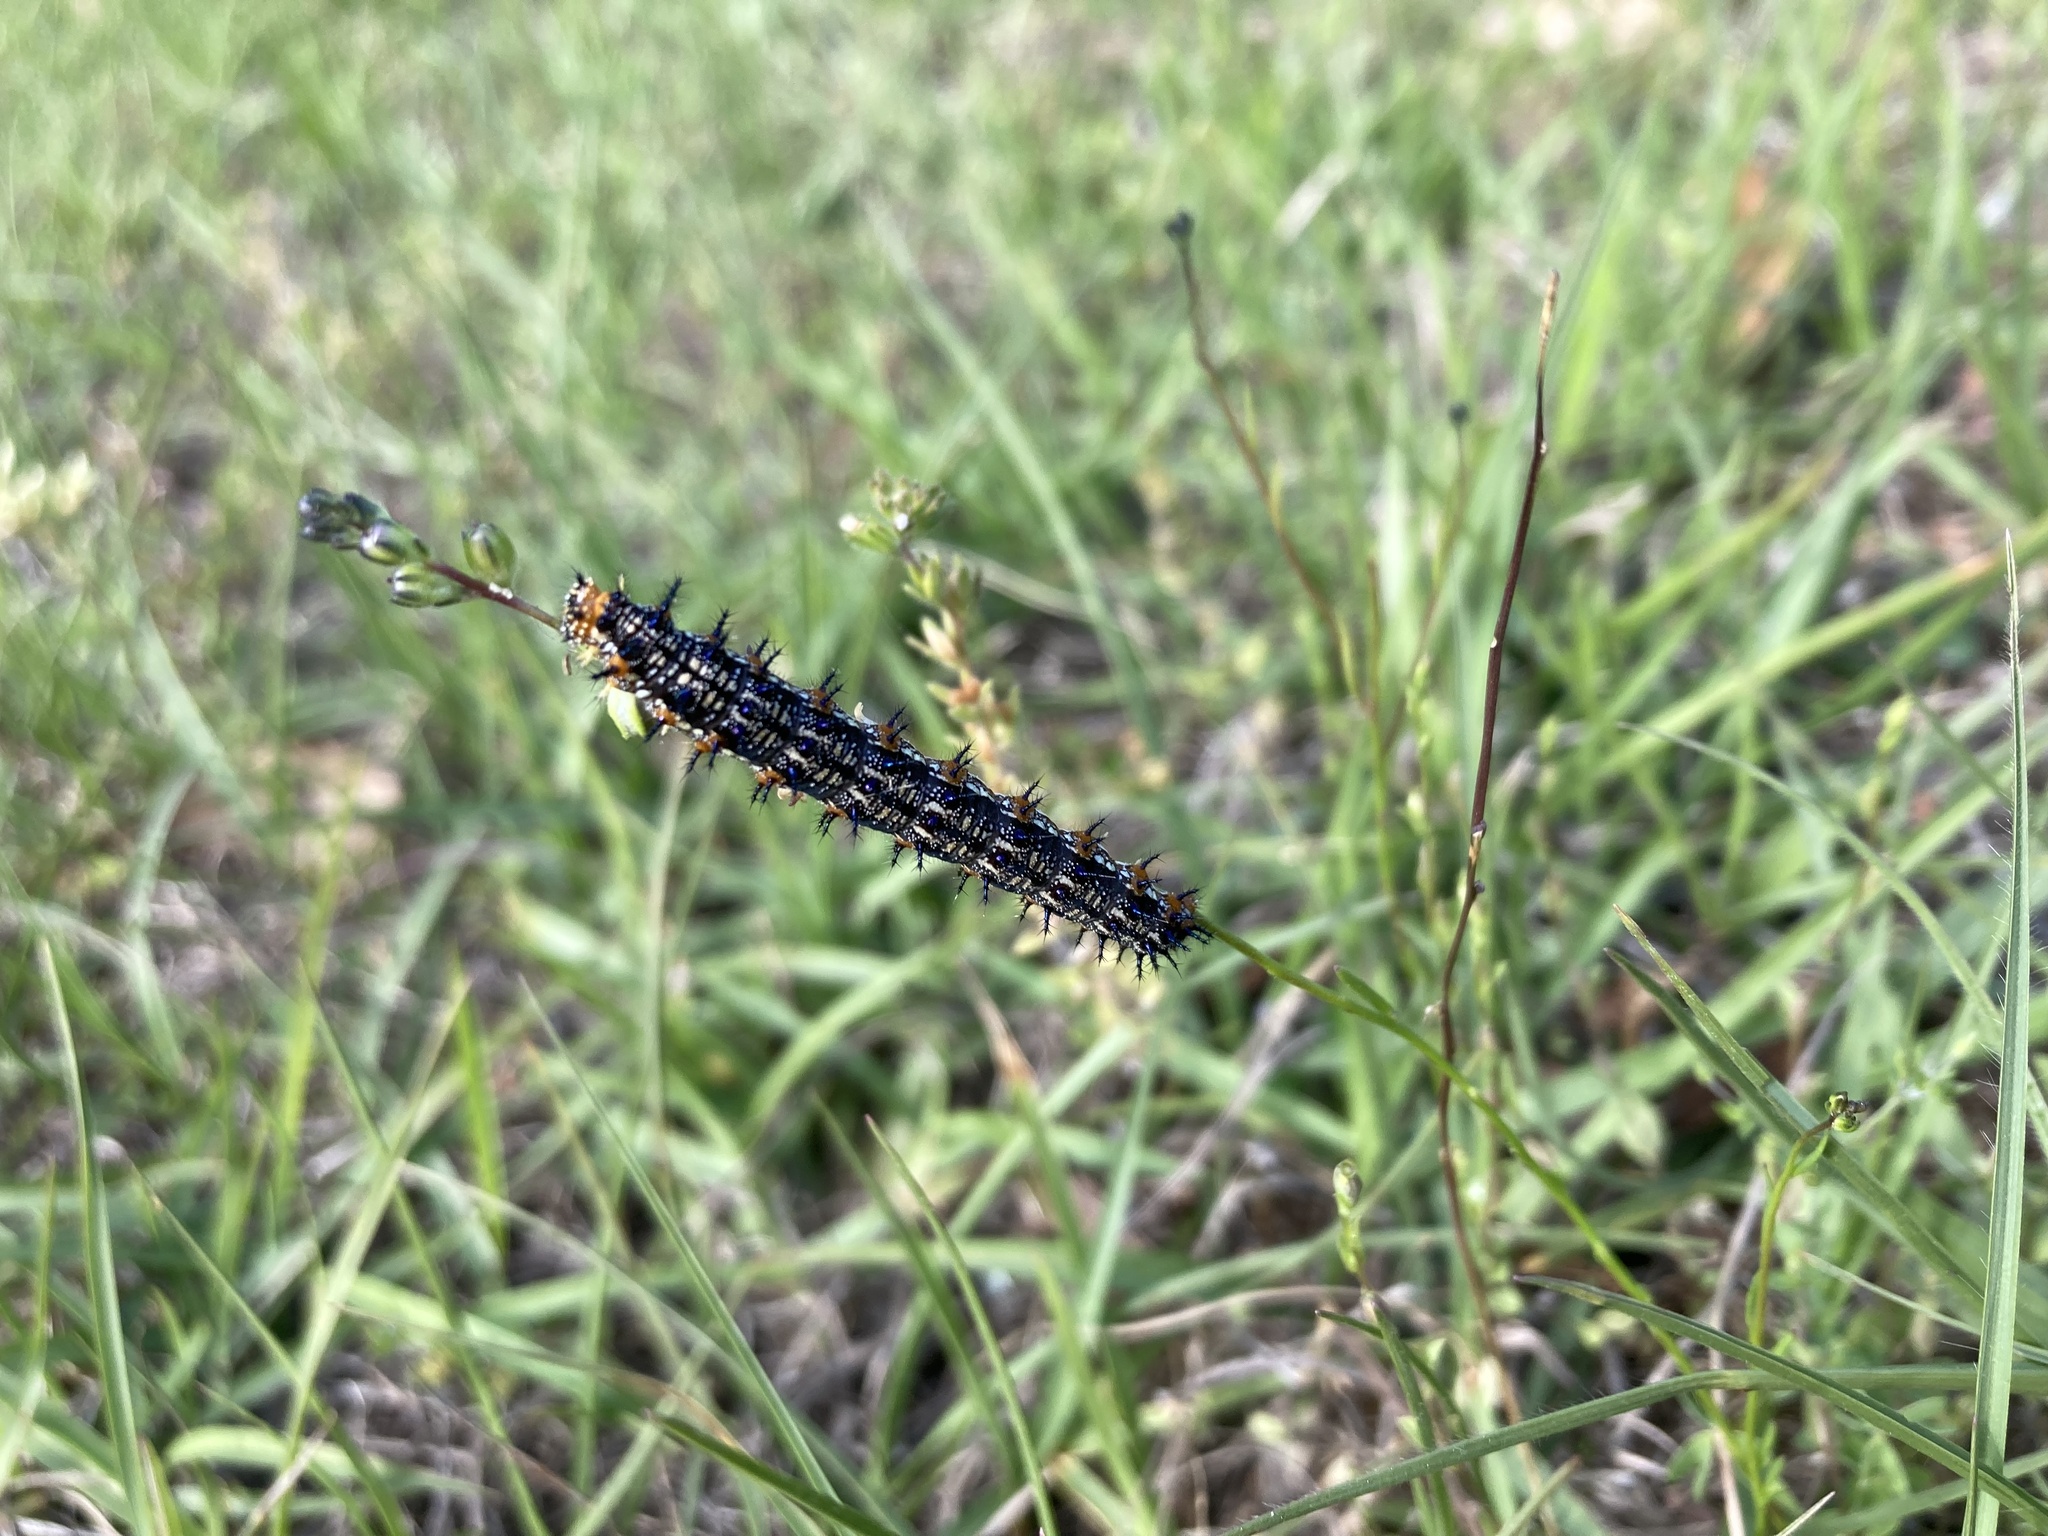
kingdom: Animalia
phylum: Arthropoda
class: Insecta
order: Lepidoptera
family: Nymphalidae
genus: Junonia
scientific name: Junonia coenia
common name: Common buckeye
